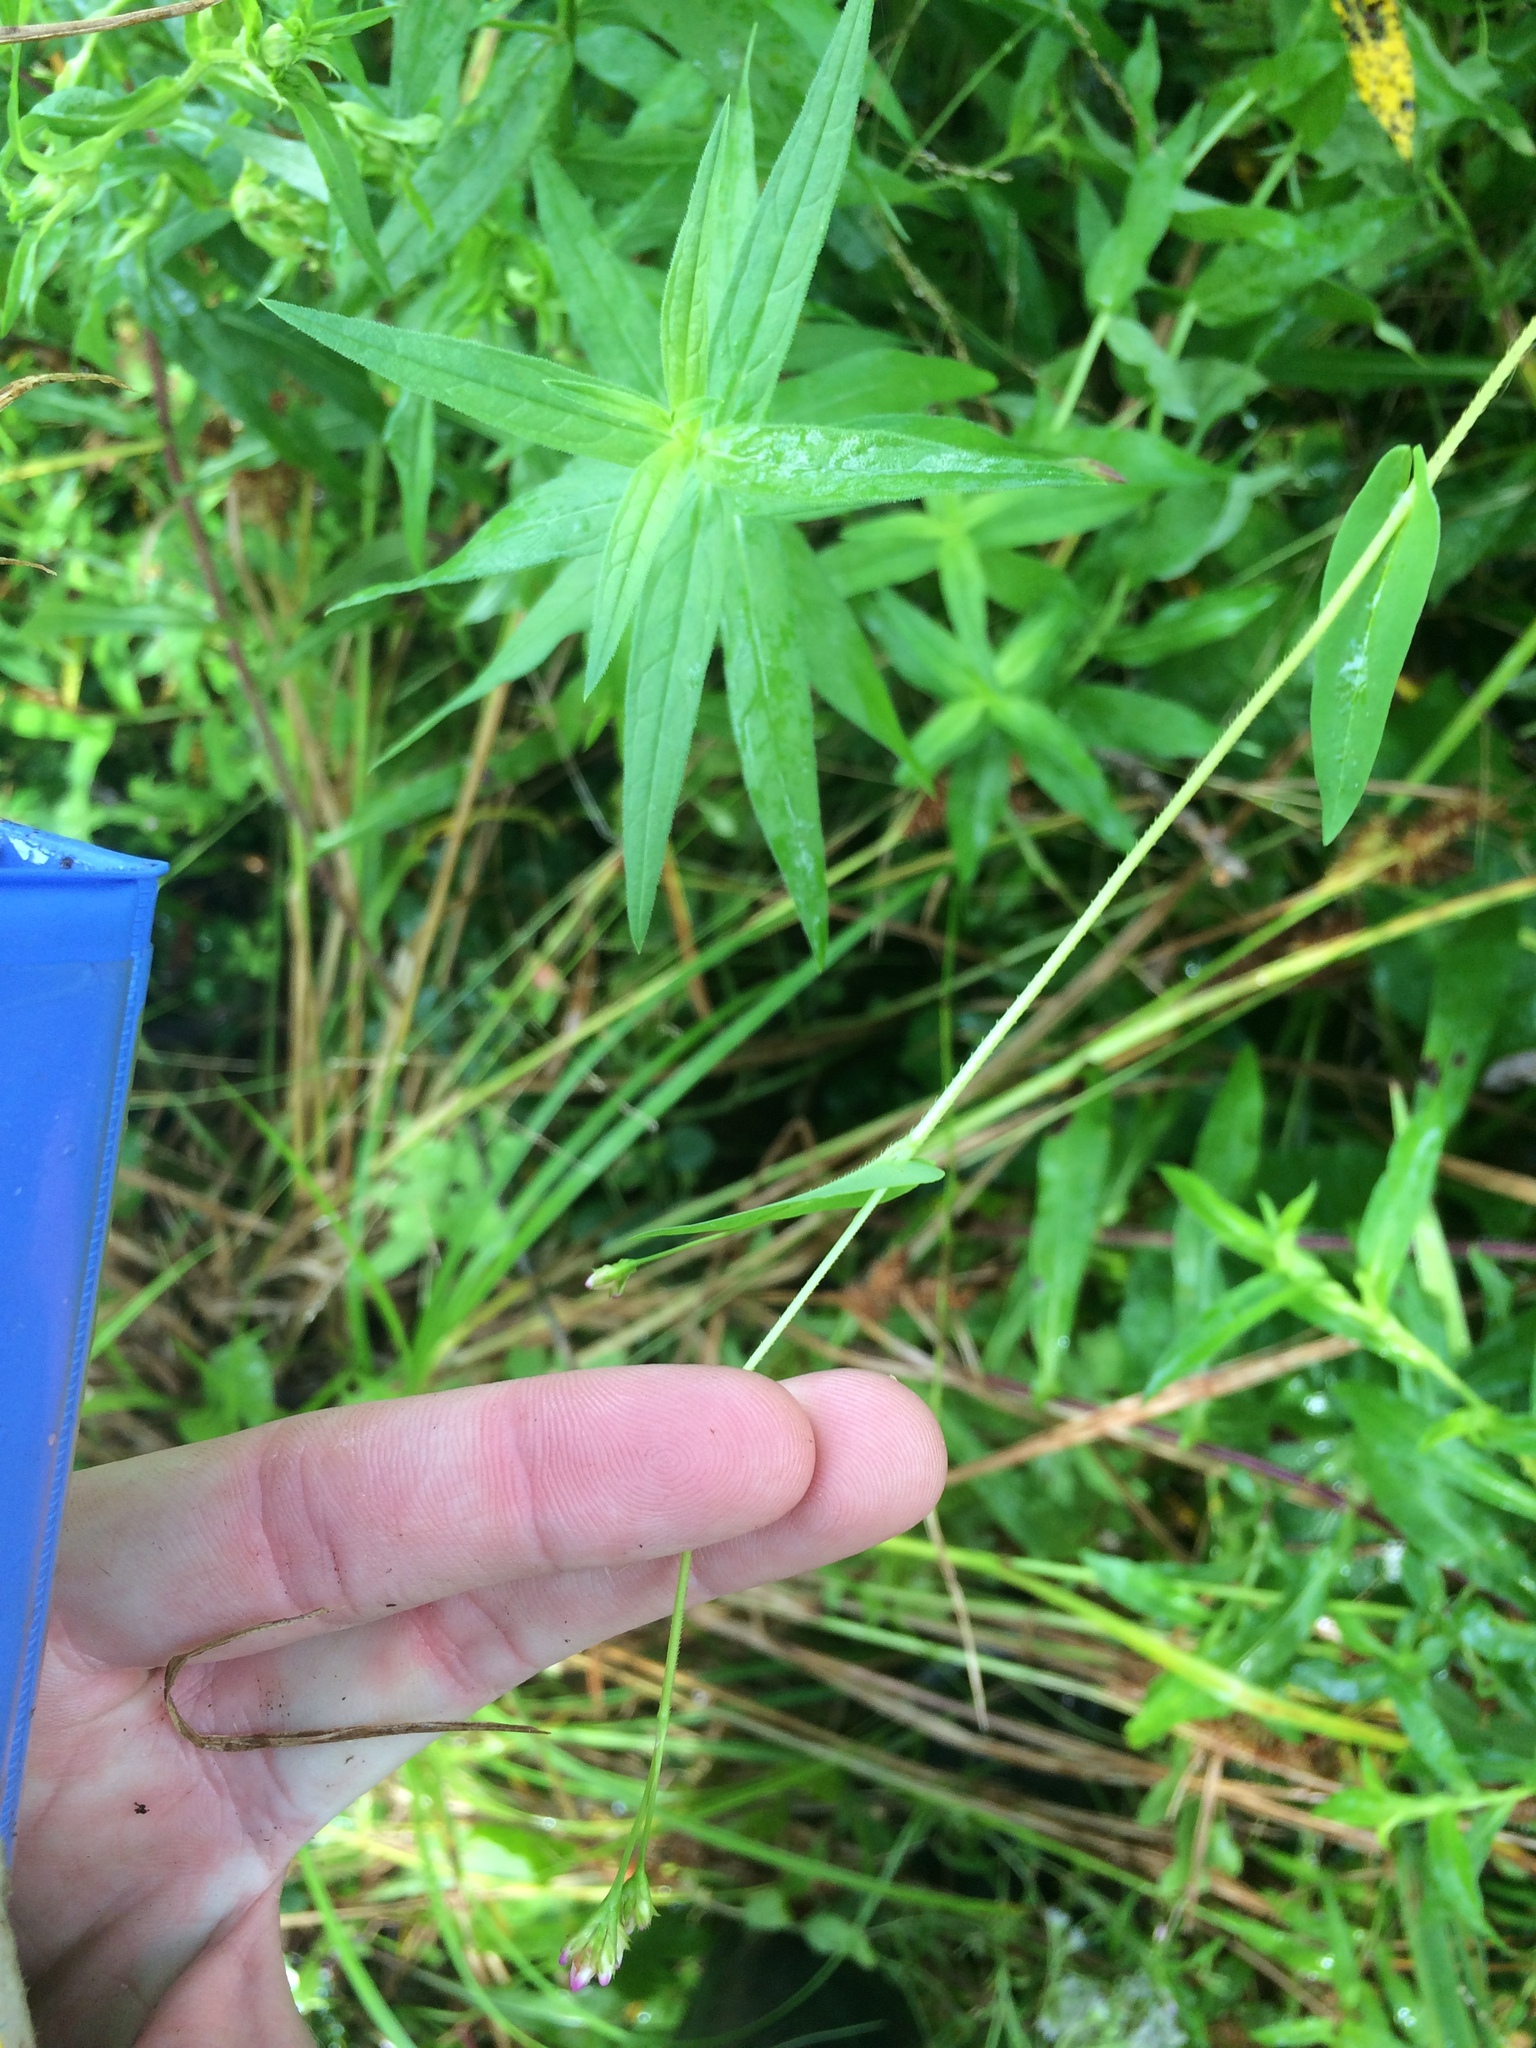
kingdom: Plantae
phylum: Tracheophyta
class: Magnoliopsida
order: Caryophyllales
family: Polygonaceae
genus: Persicaria
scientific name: Persicaria sagittata
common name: American tearthumb
